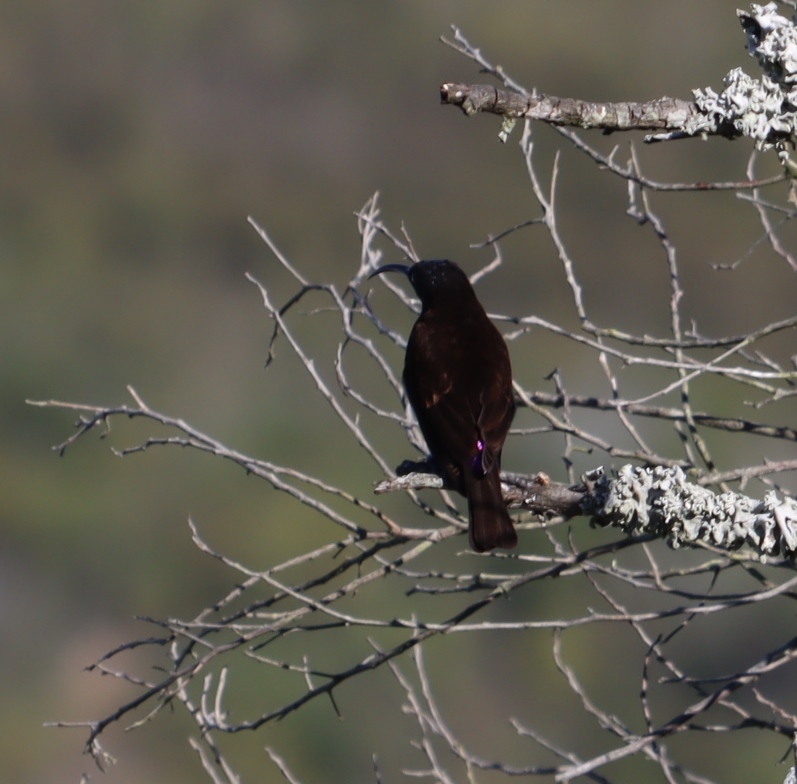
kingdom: Animalia
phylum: Chordata
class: Aves
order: Passeriformes
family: Nectariniidae
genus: Chalcomitra
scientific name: Chalcomitra amethystina
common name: Amethyst sunbird
